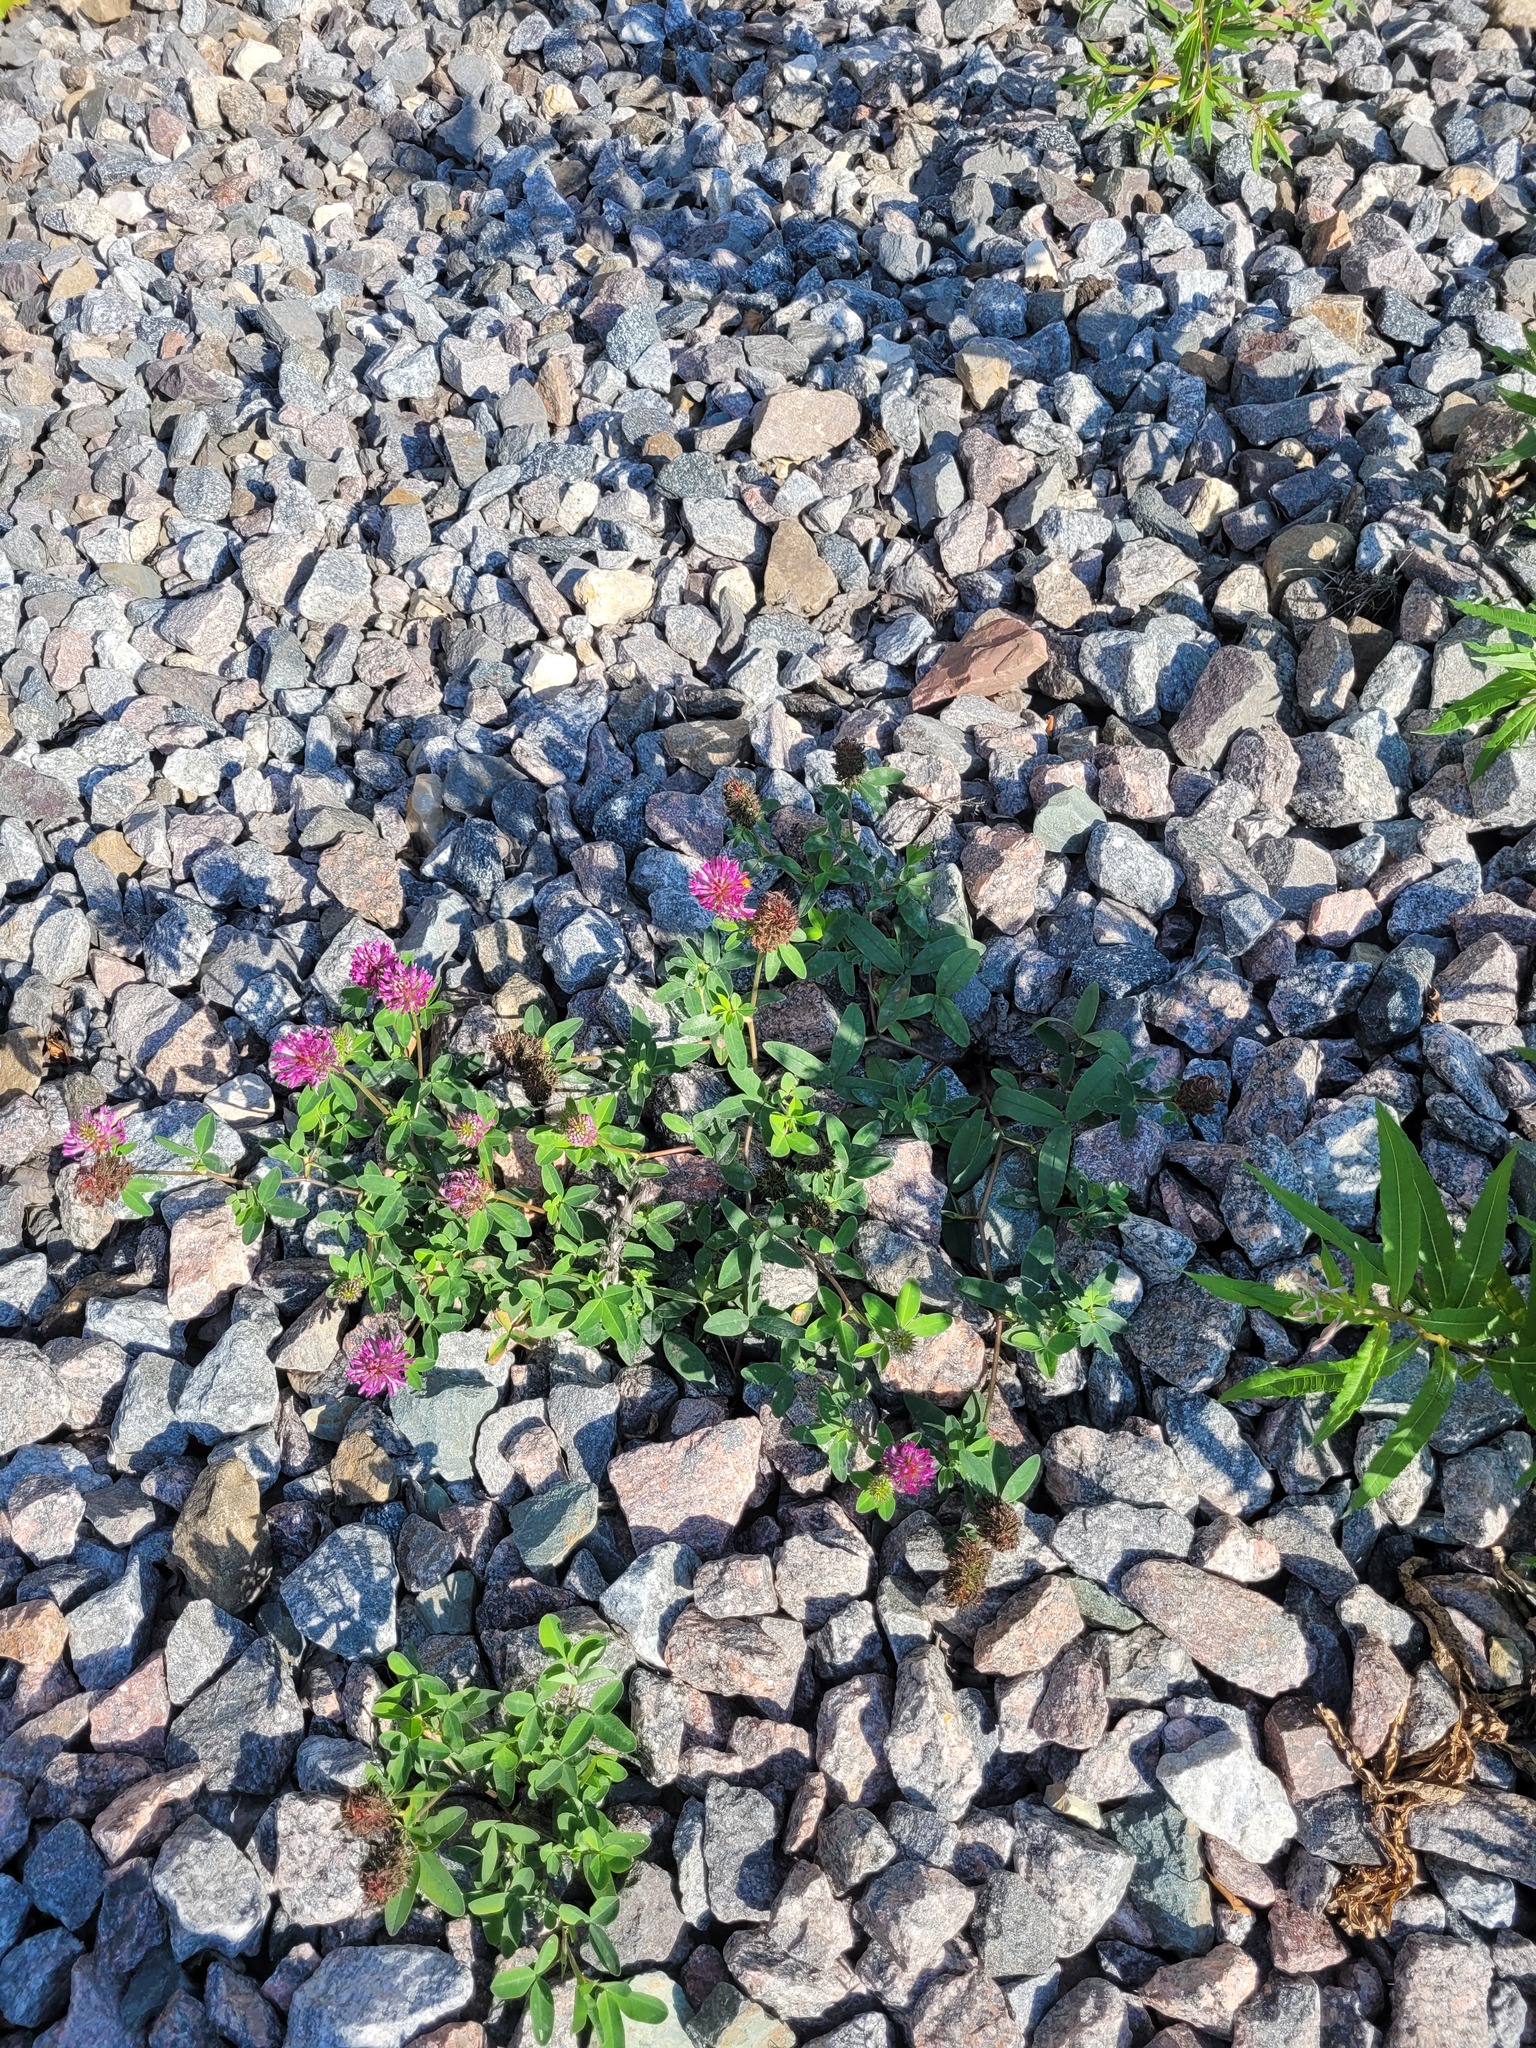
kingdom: Plantae
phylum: Tracheophyta
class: Magnoliopsida
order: Fabales
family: Fabaceae
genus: Trifolium
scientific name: Trifolium medium
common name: Zigzag clover
